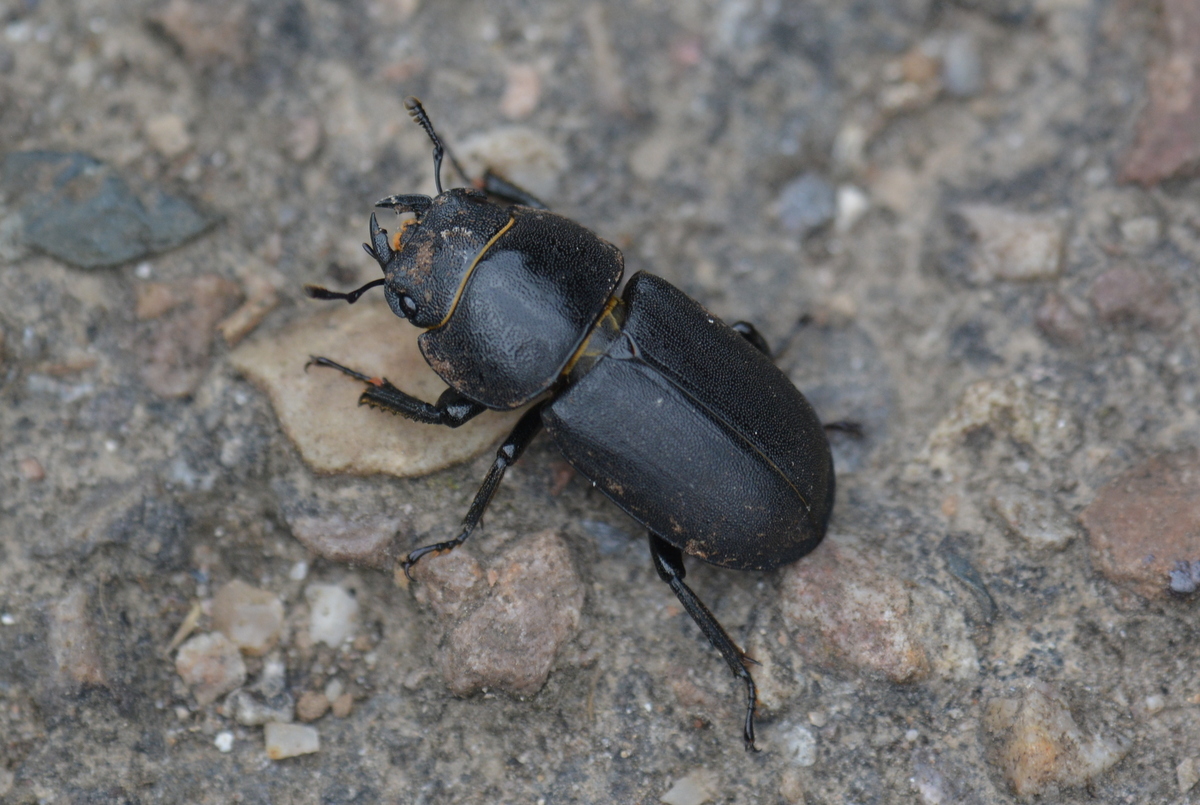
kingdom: Animalia
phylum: Arthropoda
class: Insecta
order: Coleoptera
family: Lucanidae
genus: Dorcus
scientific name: Dorcus parallelipipedus
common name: Lesser stag beetle
